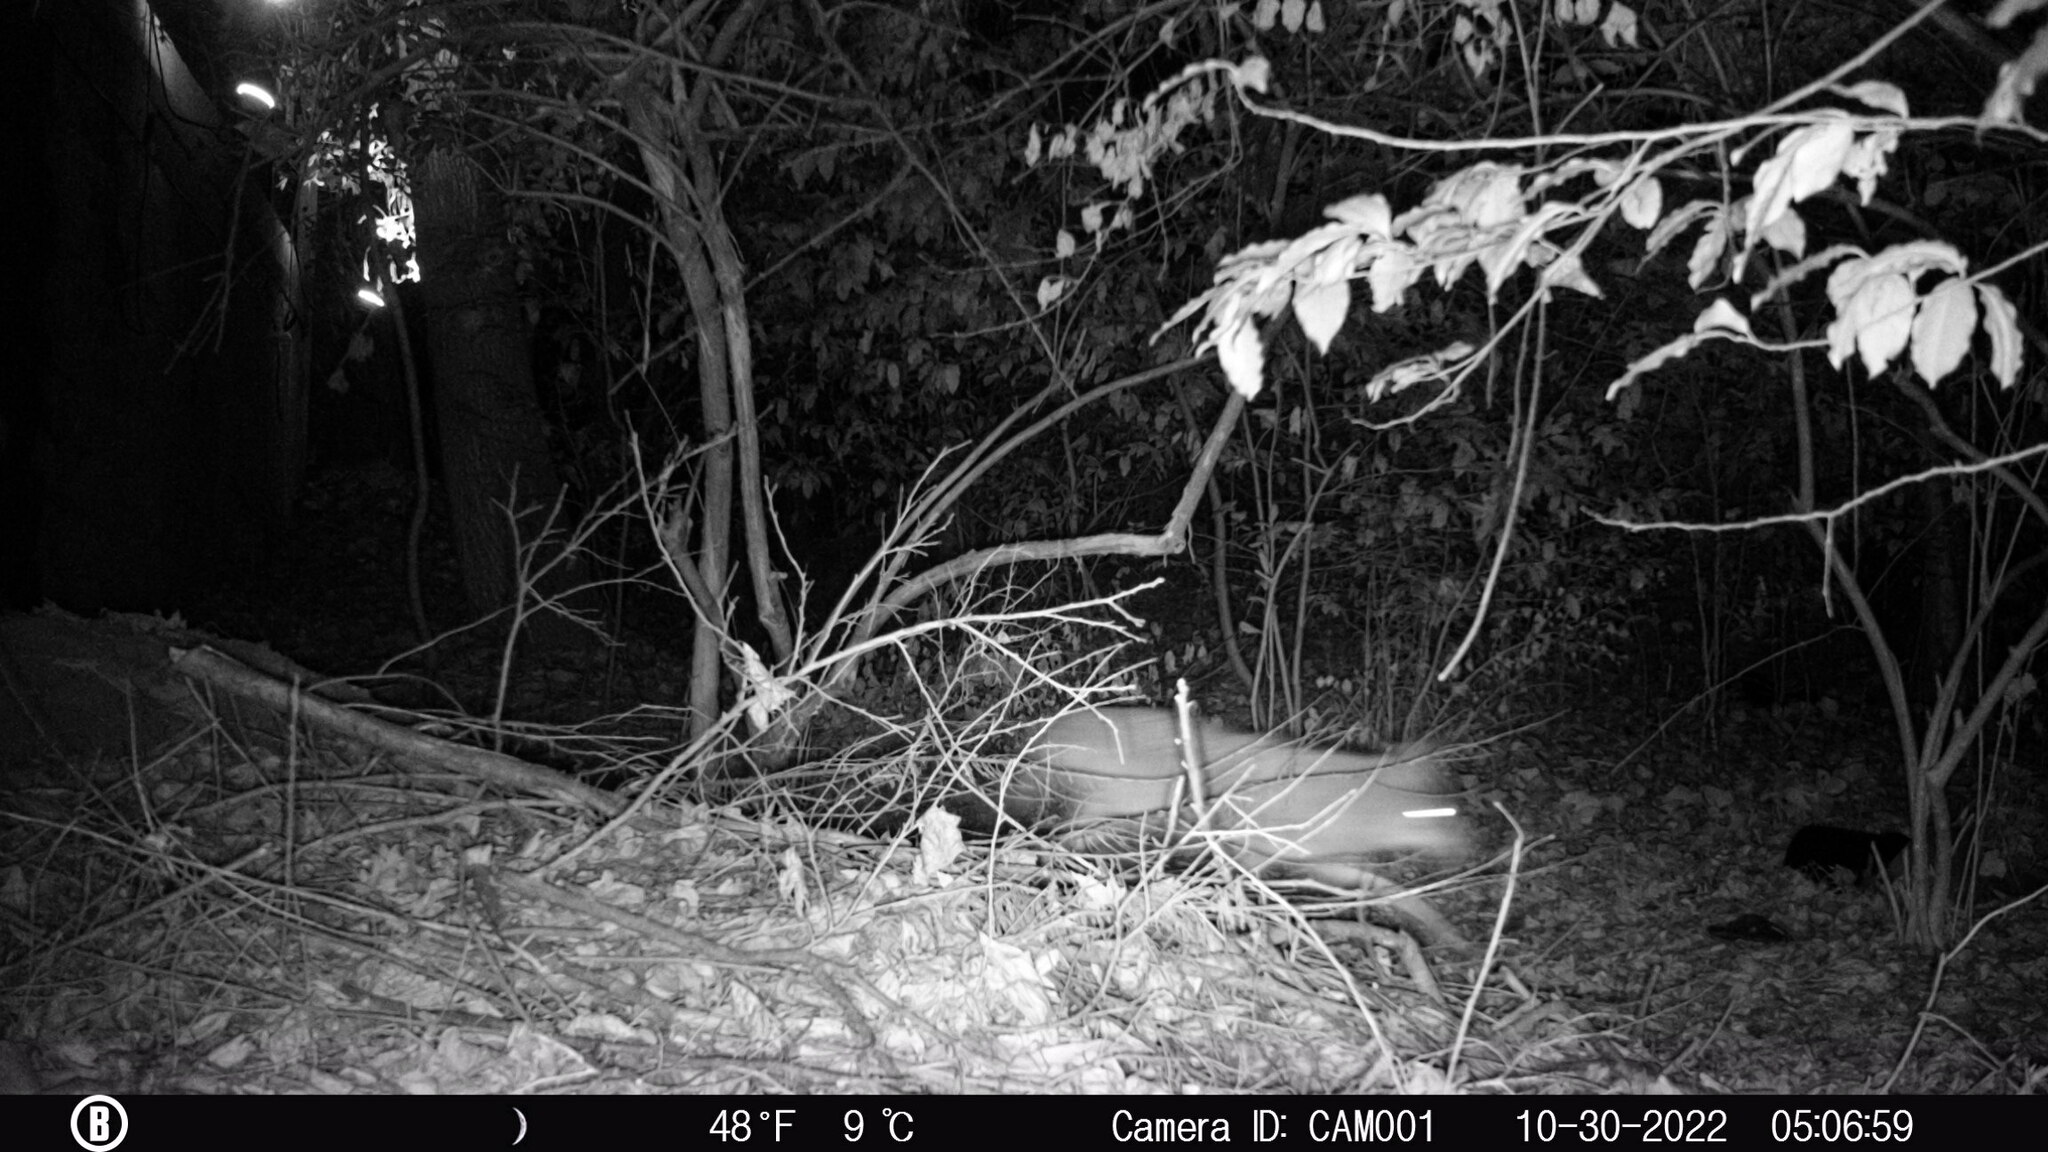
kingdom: Animalia
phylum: Chordata
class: Mammalia
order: Carnivora
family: Canidae
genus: Canis
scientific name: Canis latrans
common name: Coyote
